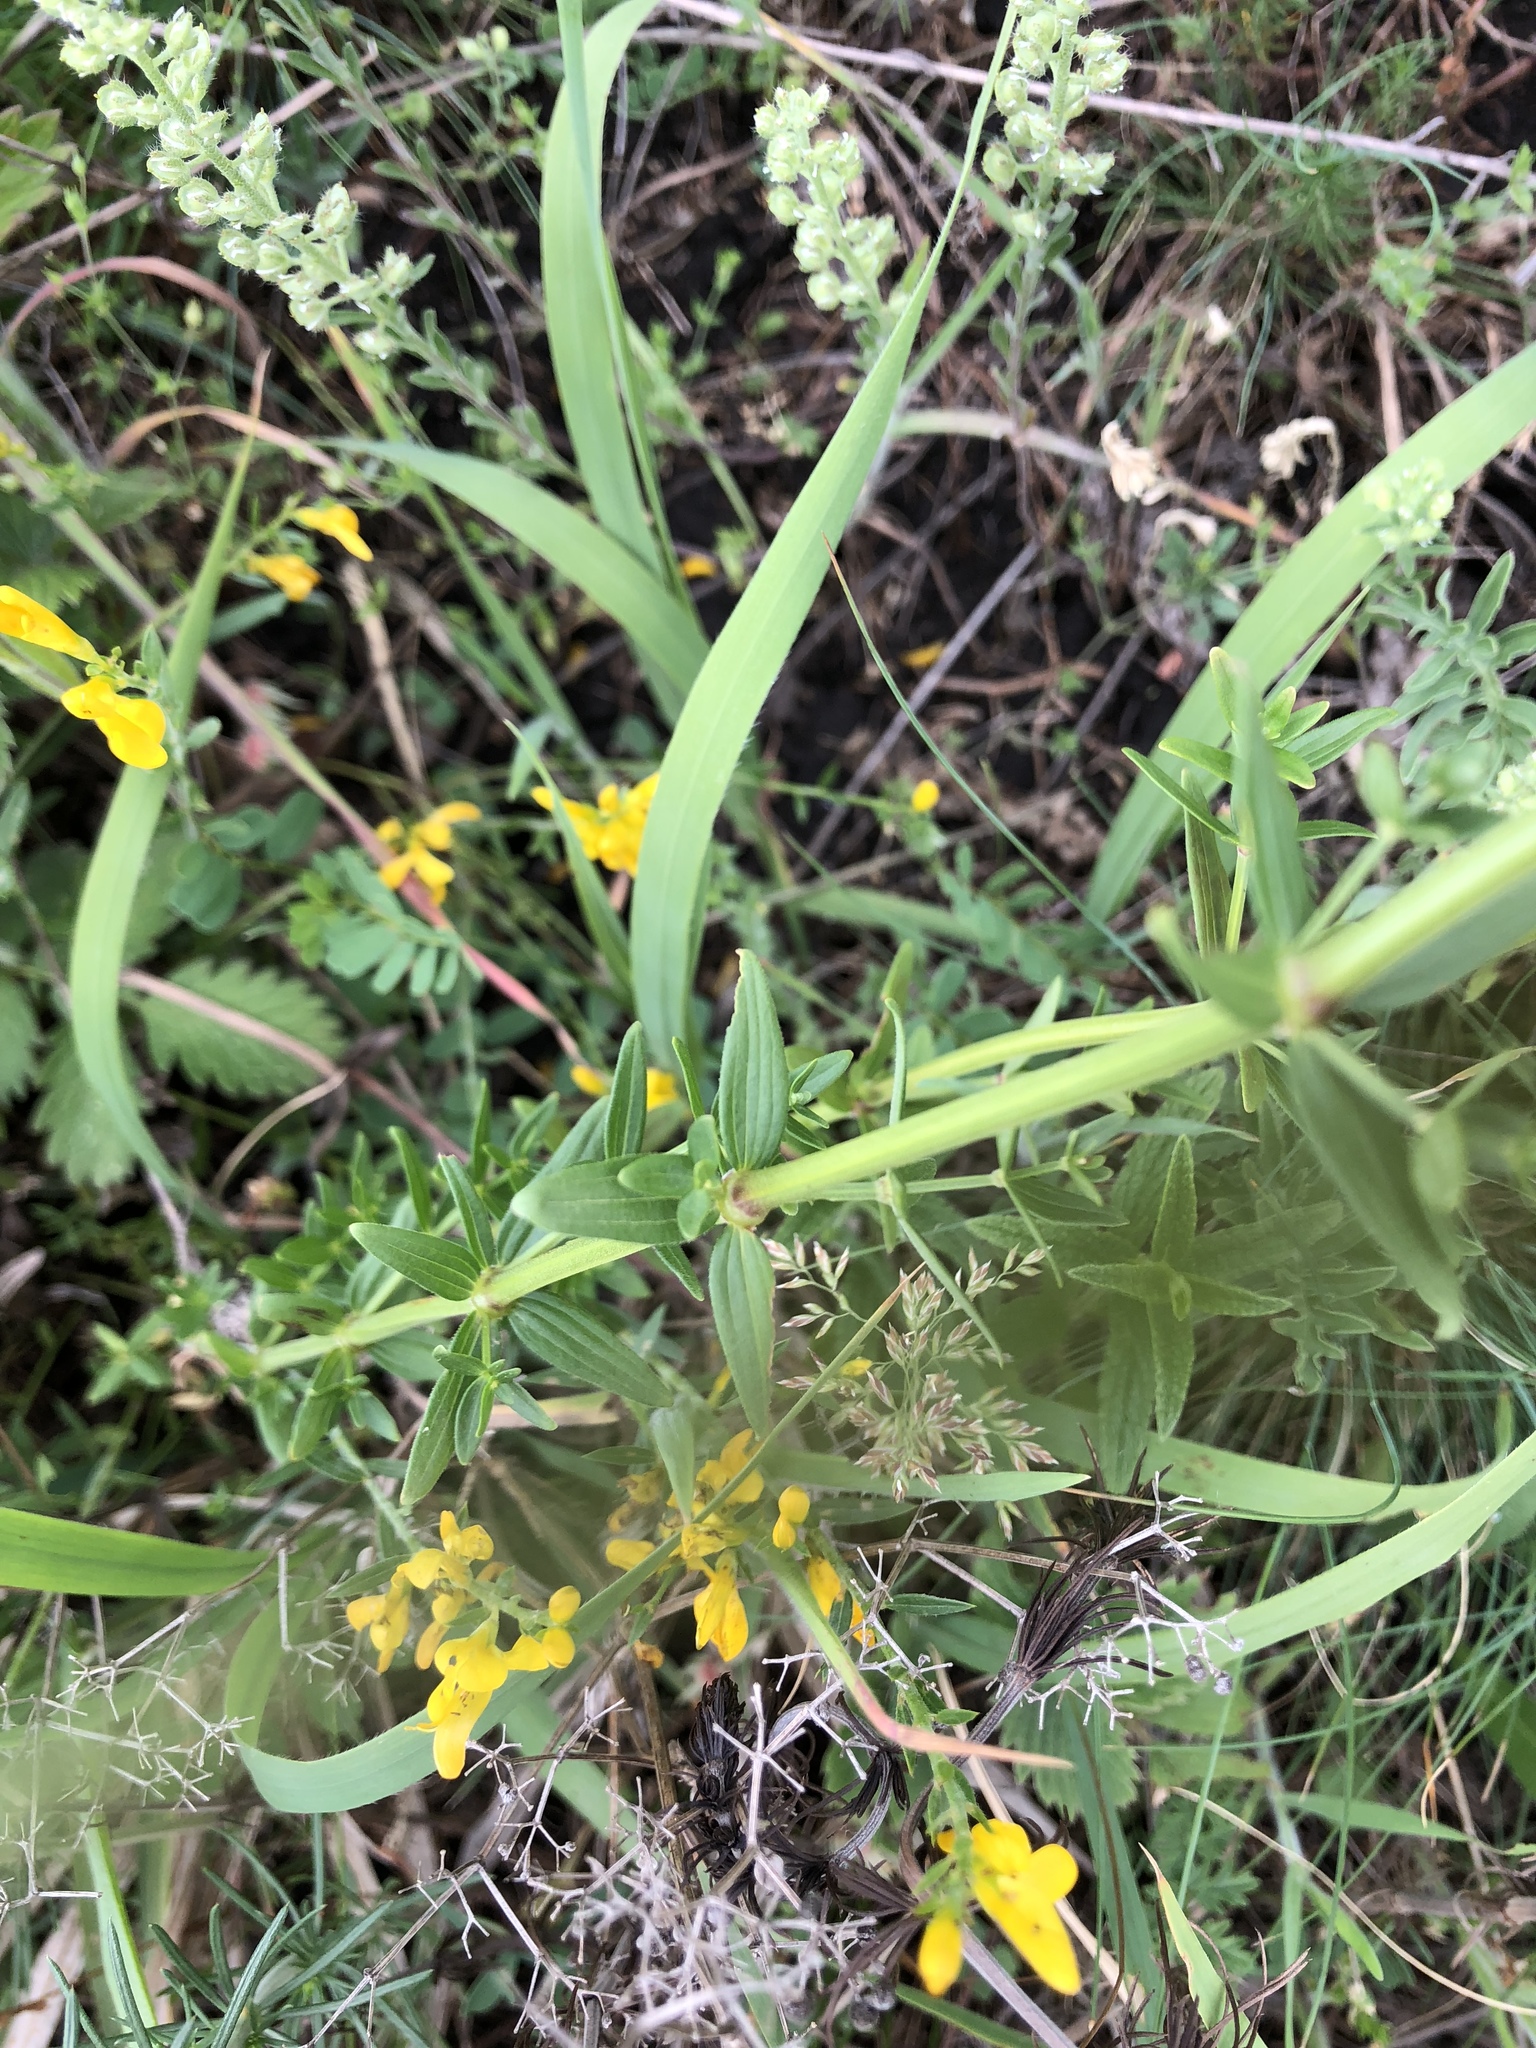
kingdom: Plantae
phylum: Tracheophyta
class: Magnoliopsida
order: Gentianales
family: Rubiaceae
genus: Galium
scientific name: Galium boreale
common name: Northern bedstraw
